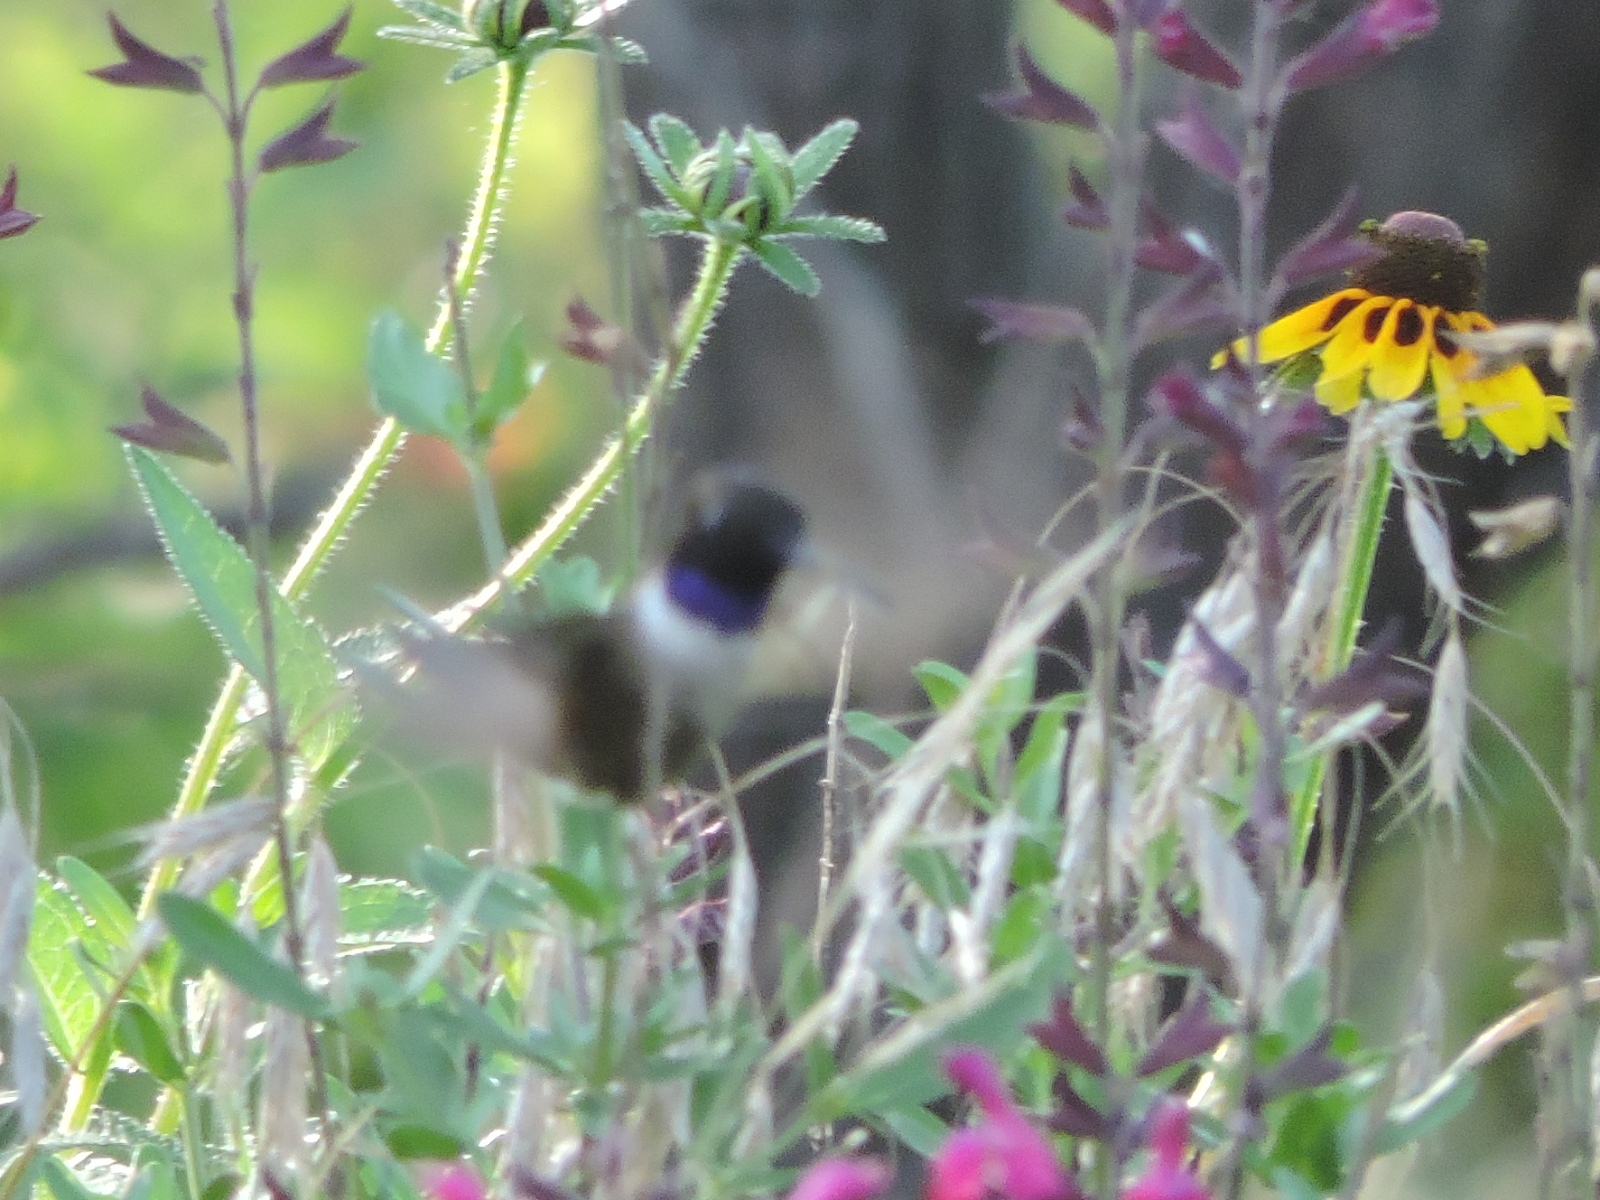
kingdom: Animalia
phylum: Chordata
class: Aves
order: Apodiformes
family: Trochilidae
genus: Archilochus
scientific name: Archilochus alexandri
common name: Black-chinned hummingbird
